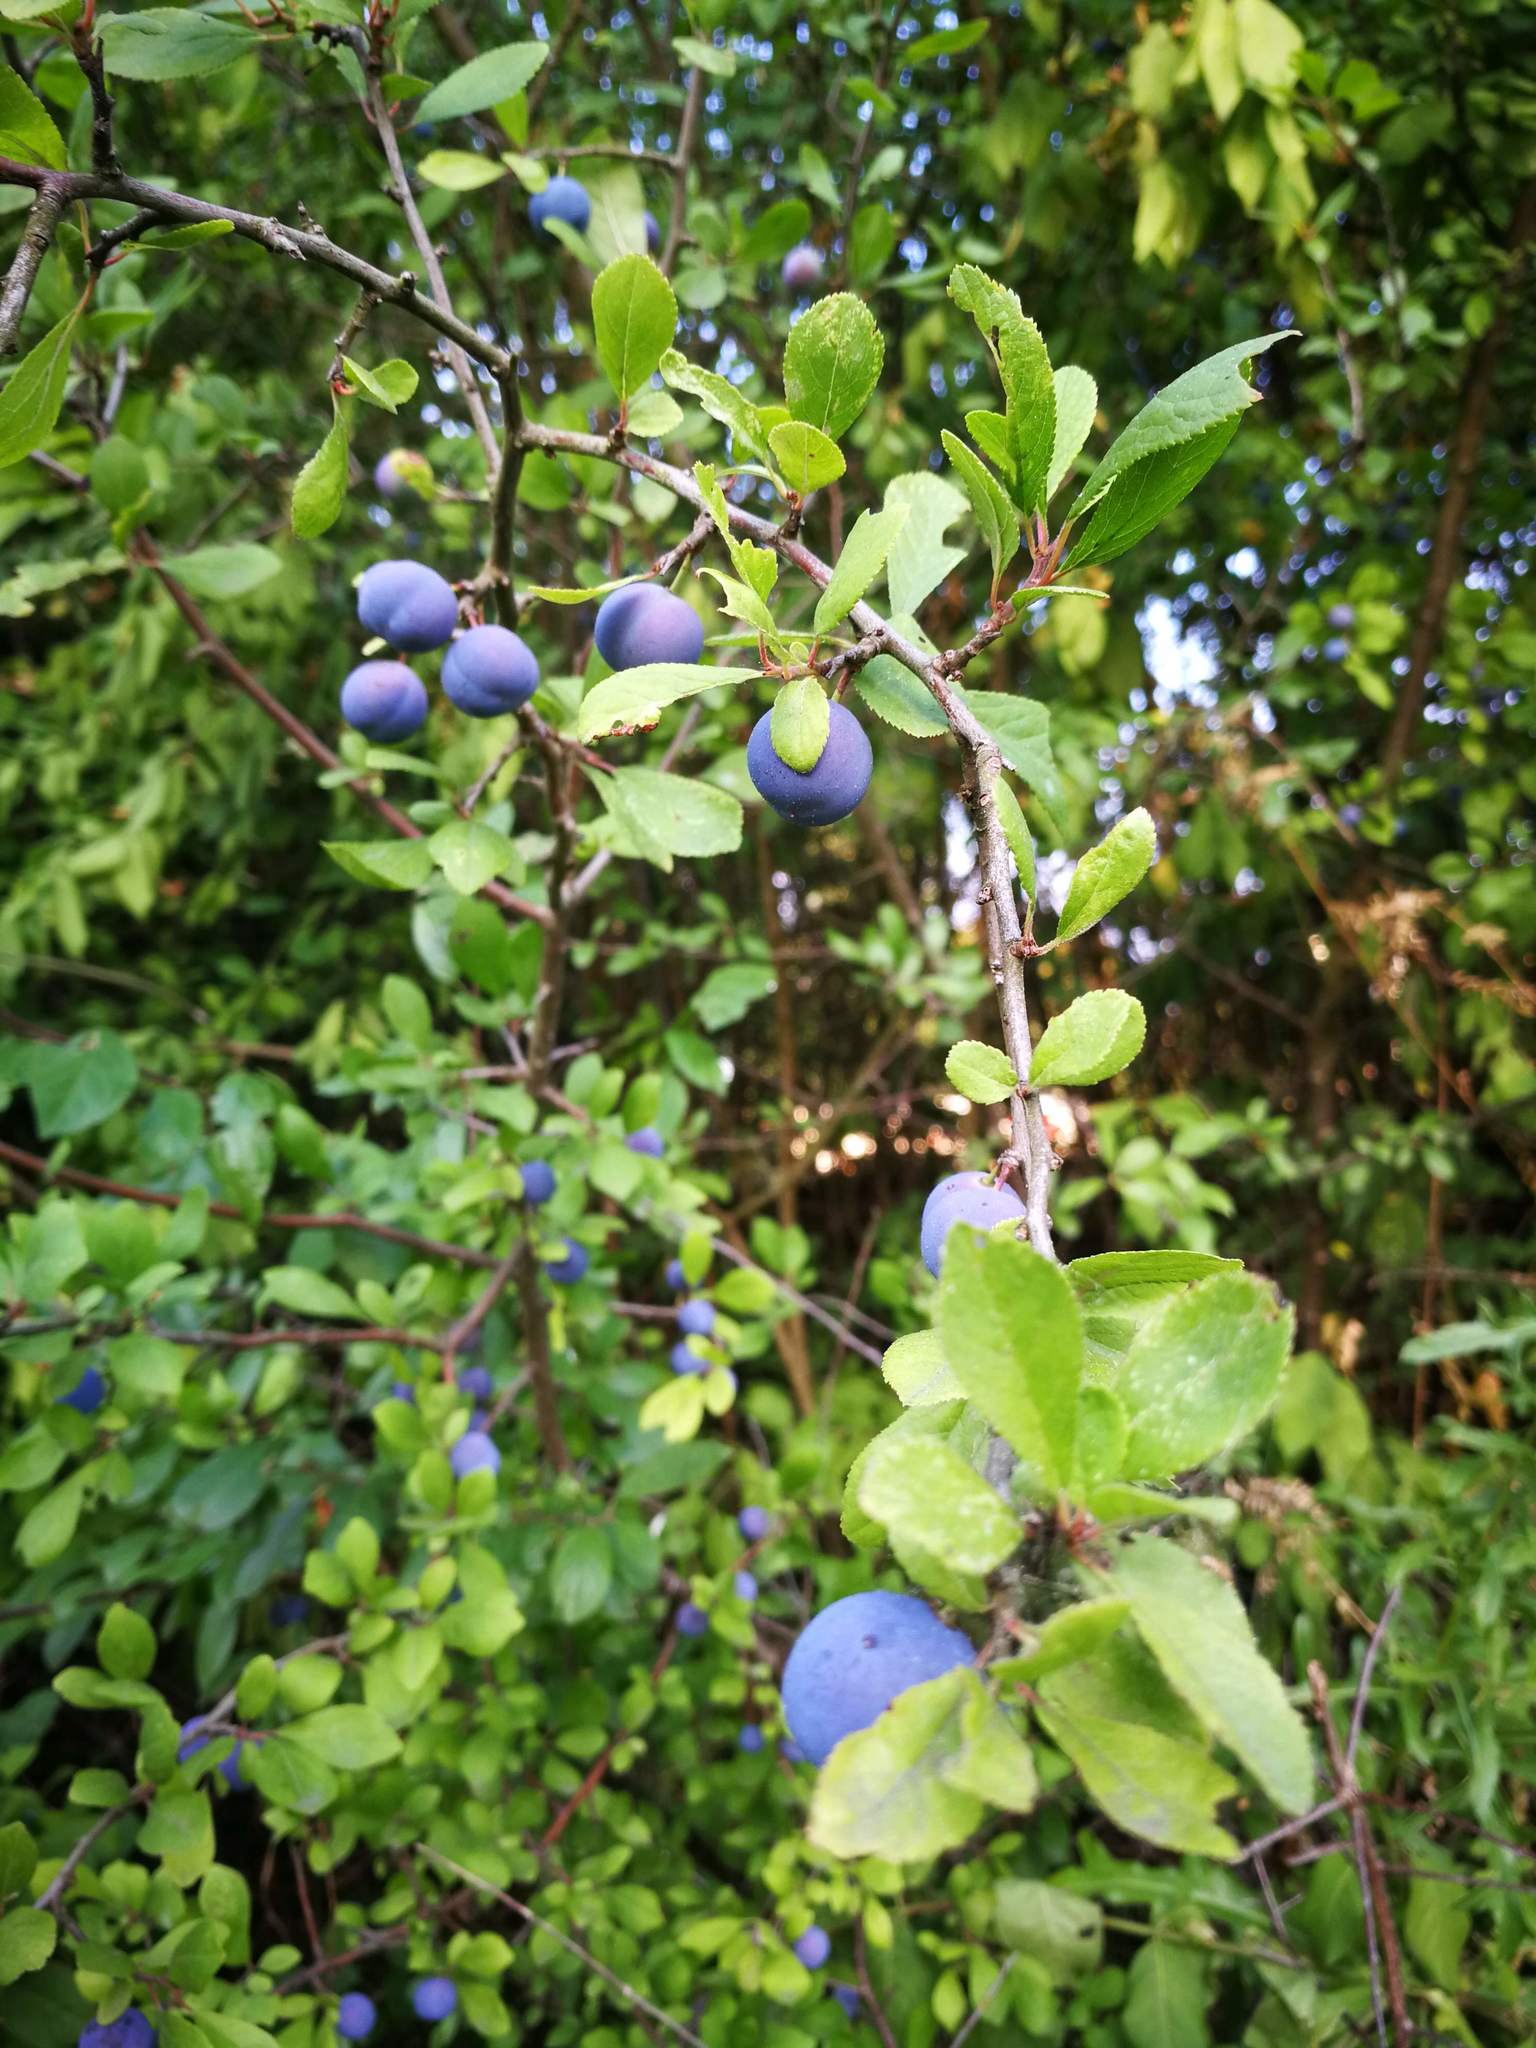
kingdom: Plantae
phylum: Tracheophyta
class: Magnoliopsida
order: Rosales
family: Rosaceae
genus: Prunus
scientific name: Prunus spinosa
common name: Blackthorn
